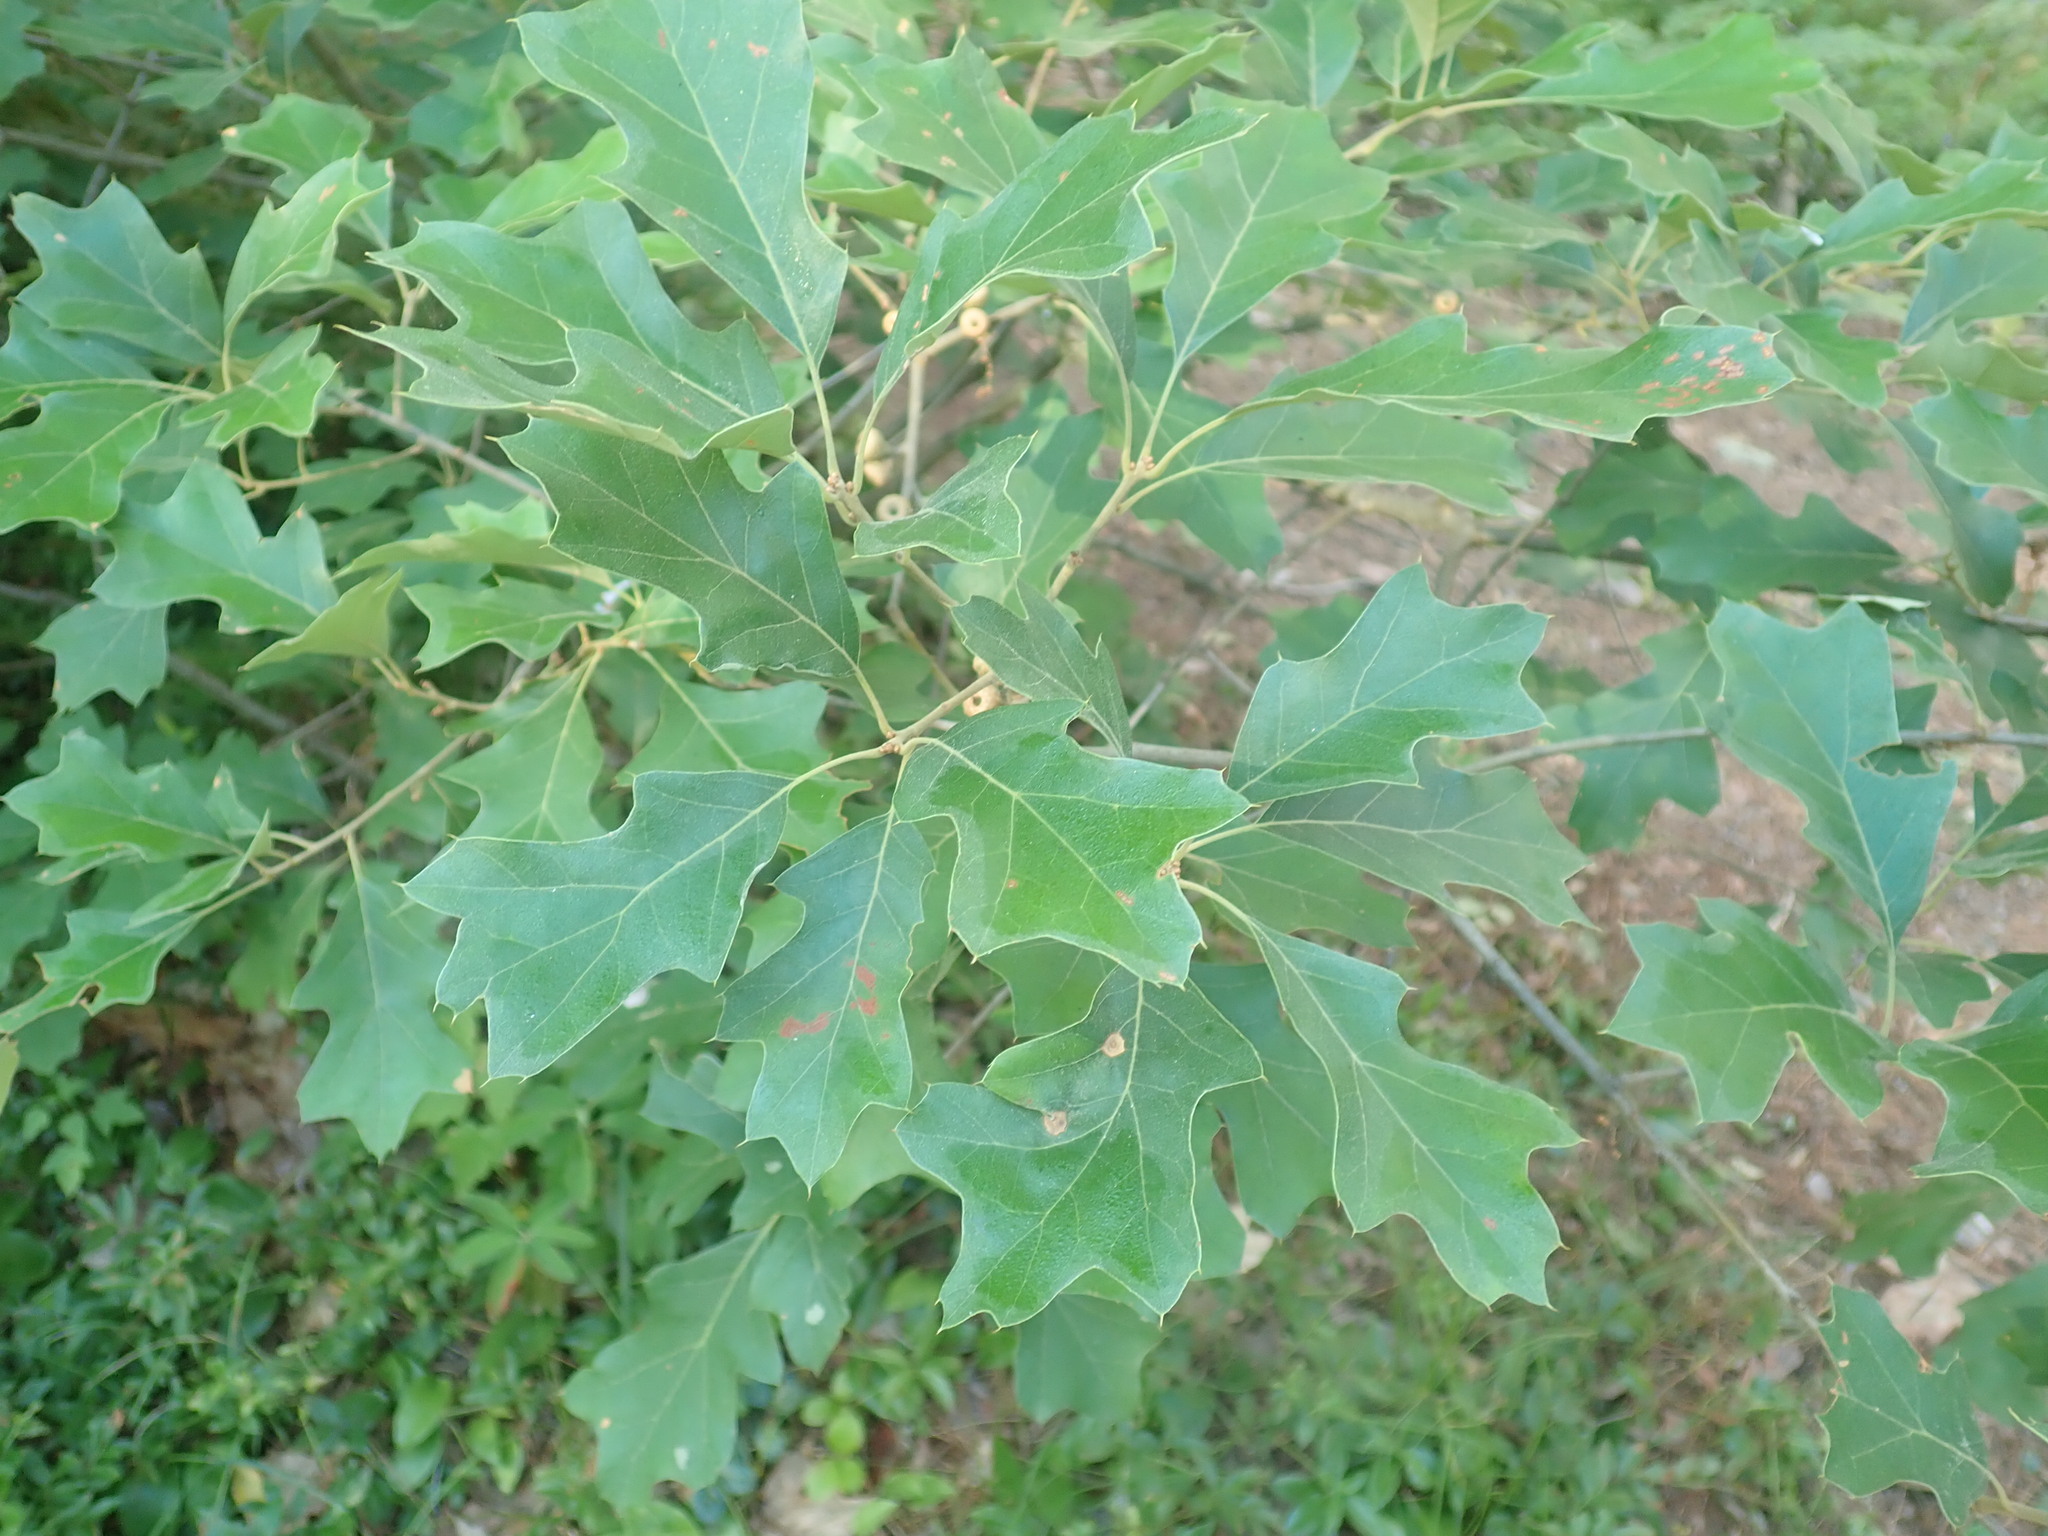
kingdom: Plantae
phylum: Tracheophyta
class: Magnoliopsida
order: Fagales
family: Fagaceae
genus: Quercus
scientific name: Quercus ilicifolia
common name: Bear oak
